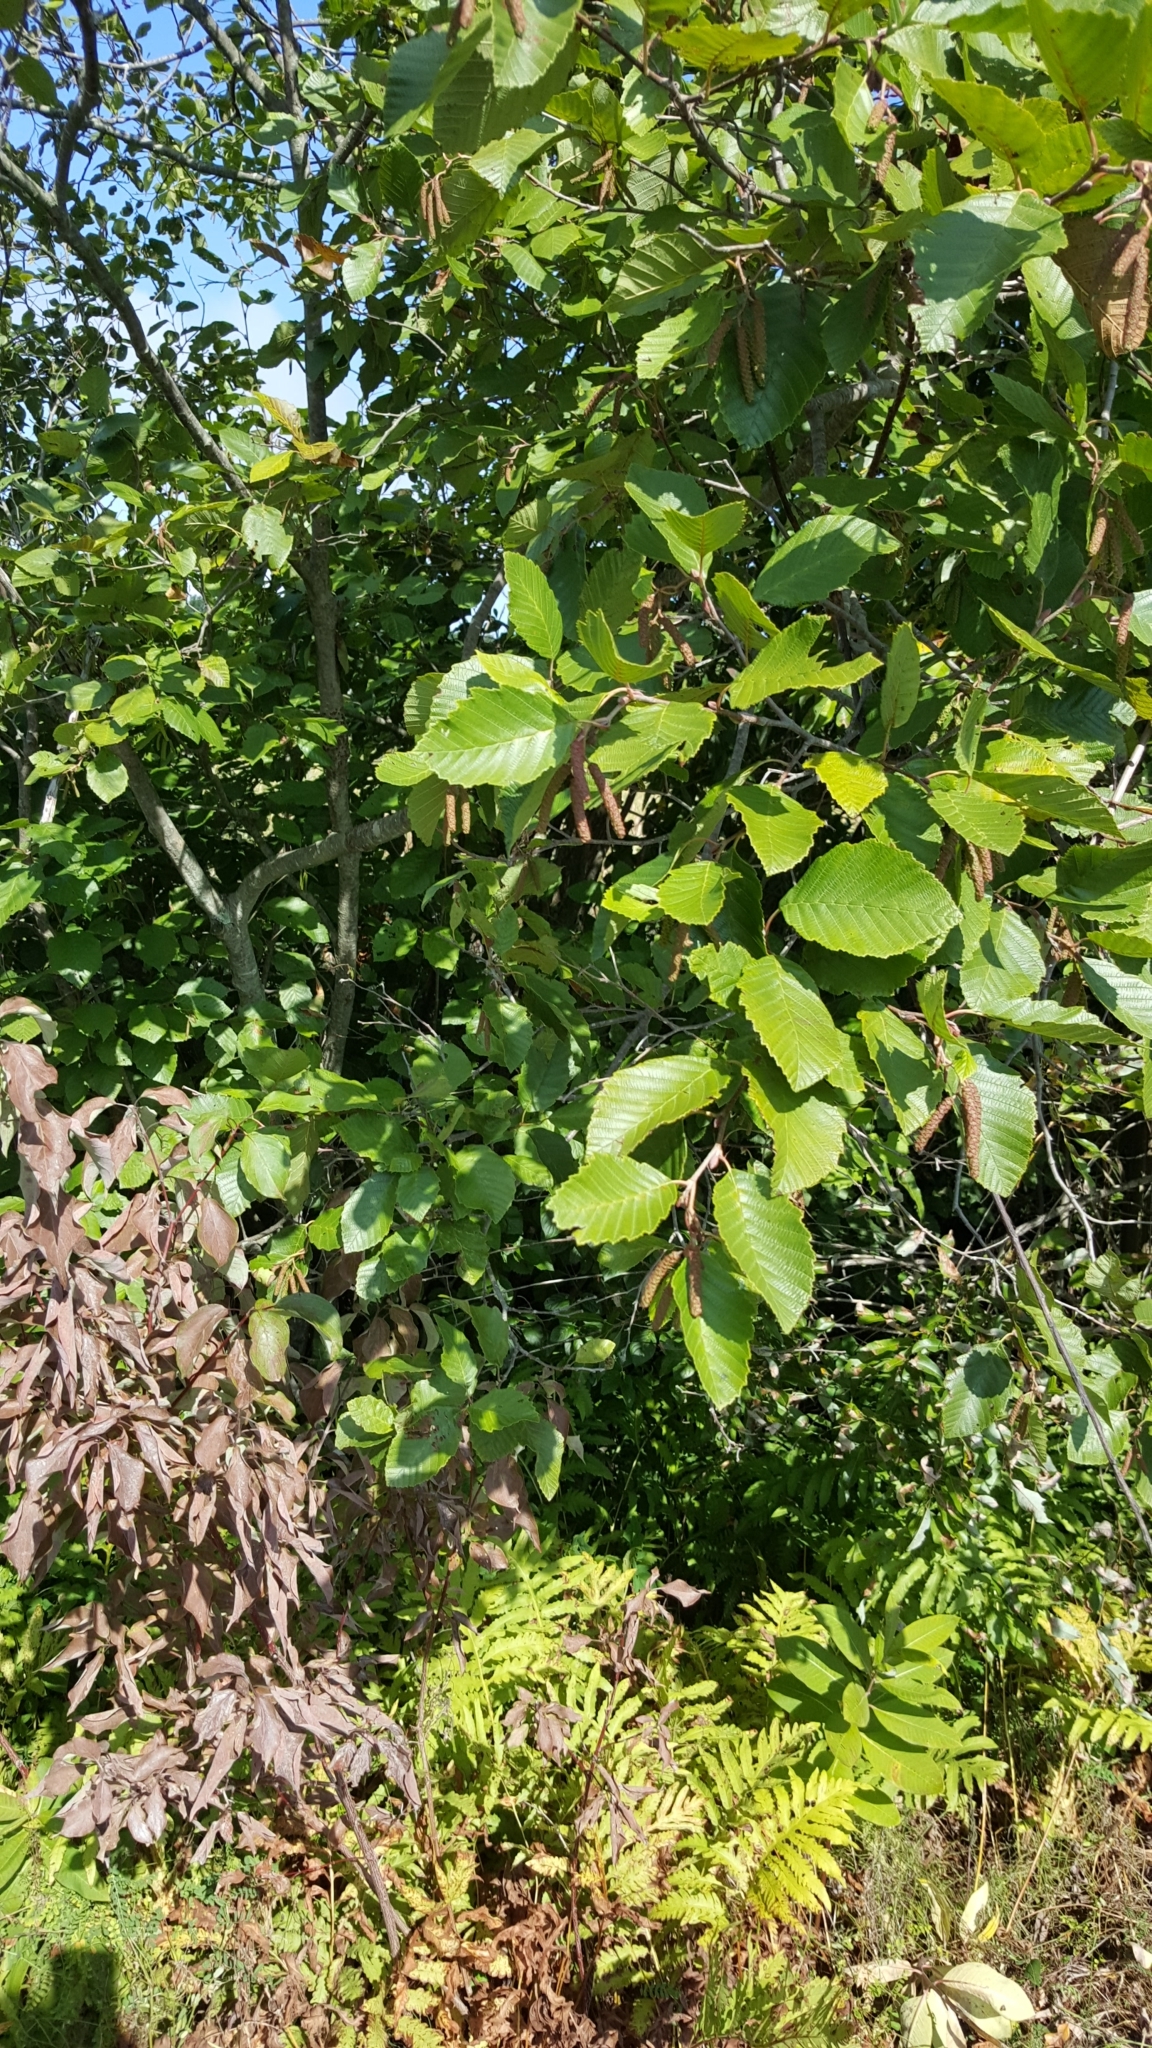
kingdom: Plantae
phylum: Tracheophyta
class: Magnoliopsida
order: Fagales
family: Betulaceae
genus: Alnus
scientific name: Alnus incana
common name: Grey alder
